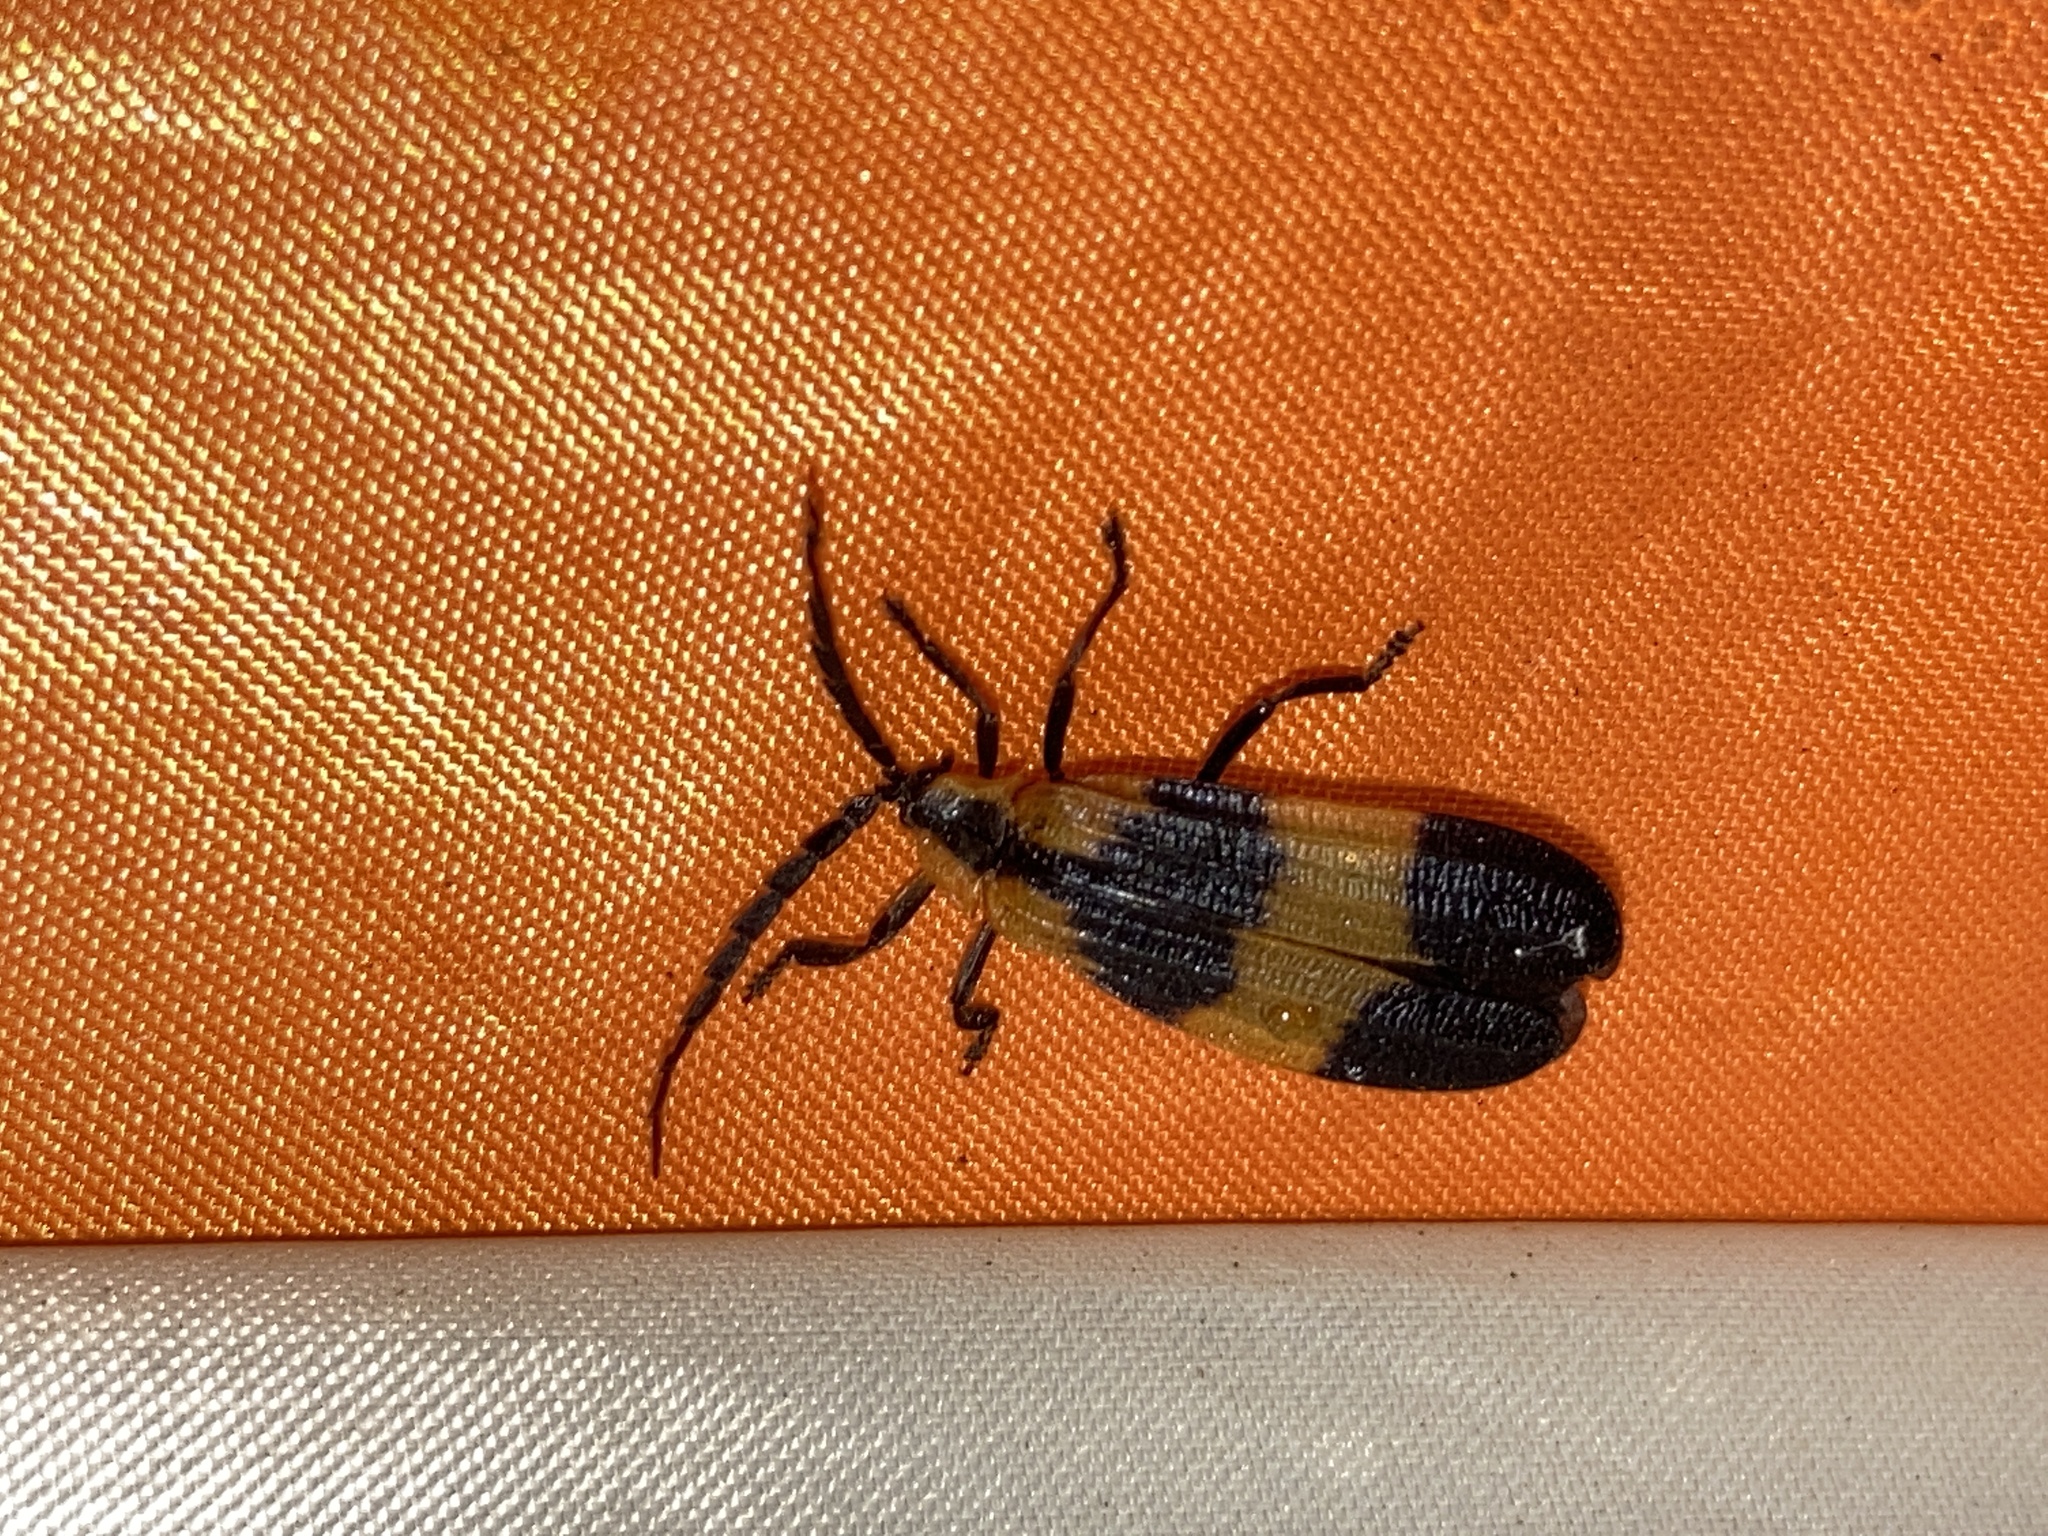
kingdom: Animalia
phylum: Arthropoda
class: Insecta
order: Coleoptera
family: Lycidae
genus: Calopteron
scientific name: Calopteron reticulatum
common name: Banded net-winged beetle
